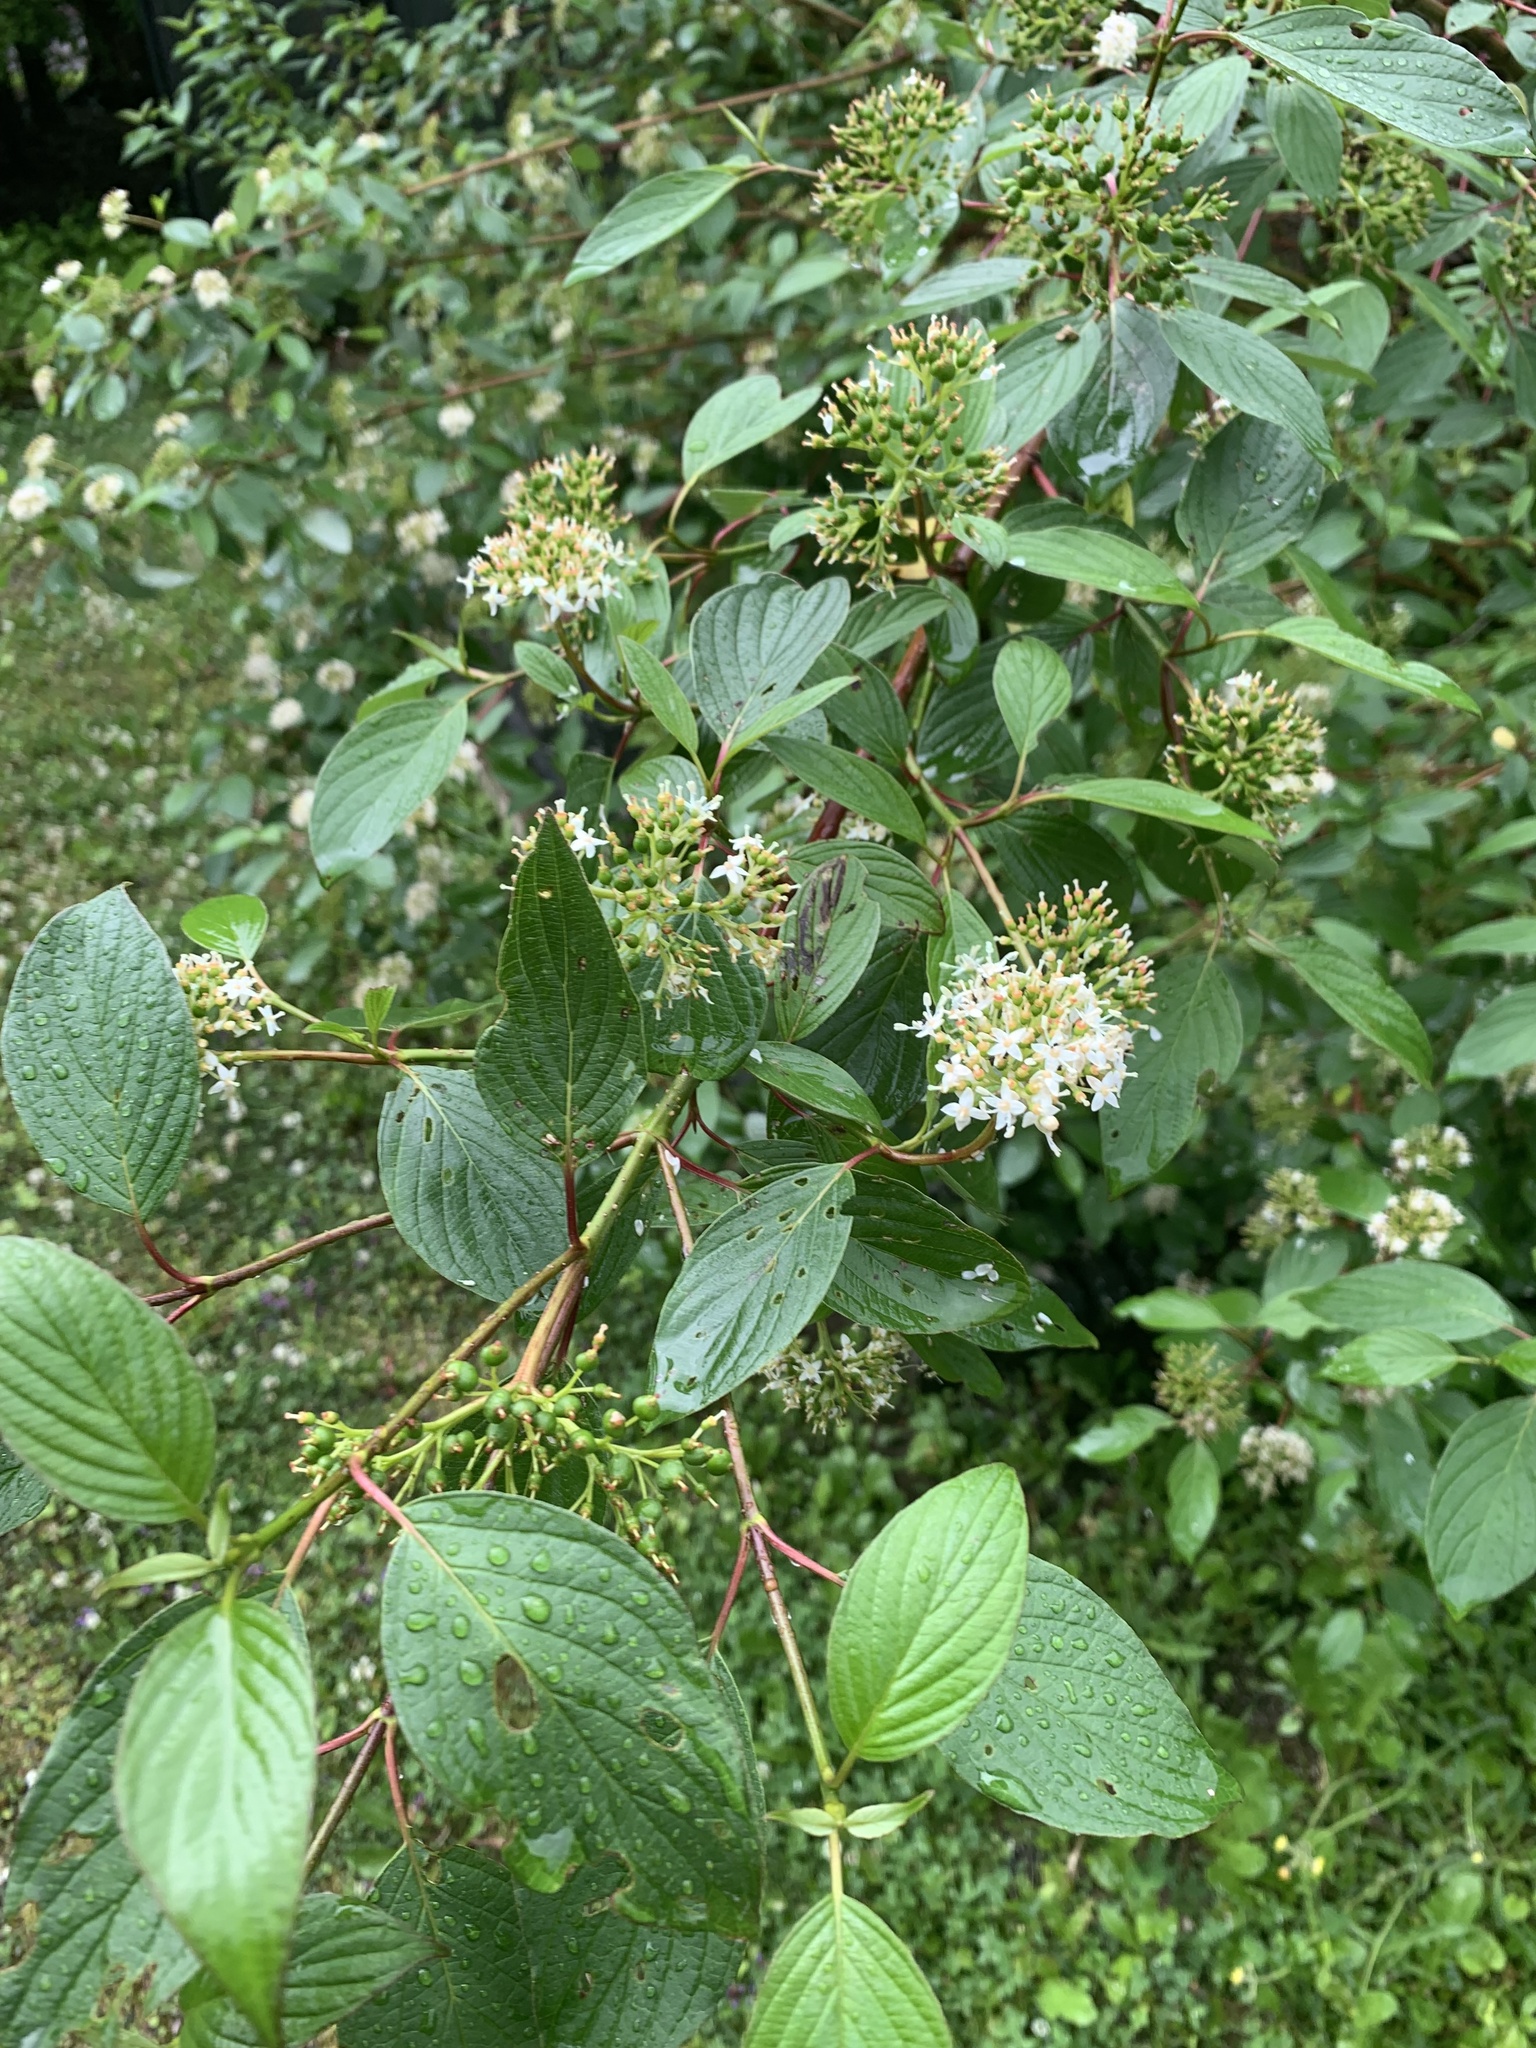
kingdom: Plantae
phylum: Tracheophyta
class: Magnoliopsida
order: Cornales
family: Cornaceae
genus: Cornus
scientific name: Cornus sericea
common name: Red-osier dogwood
